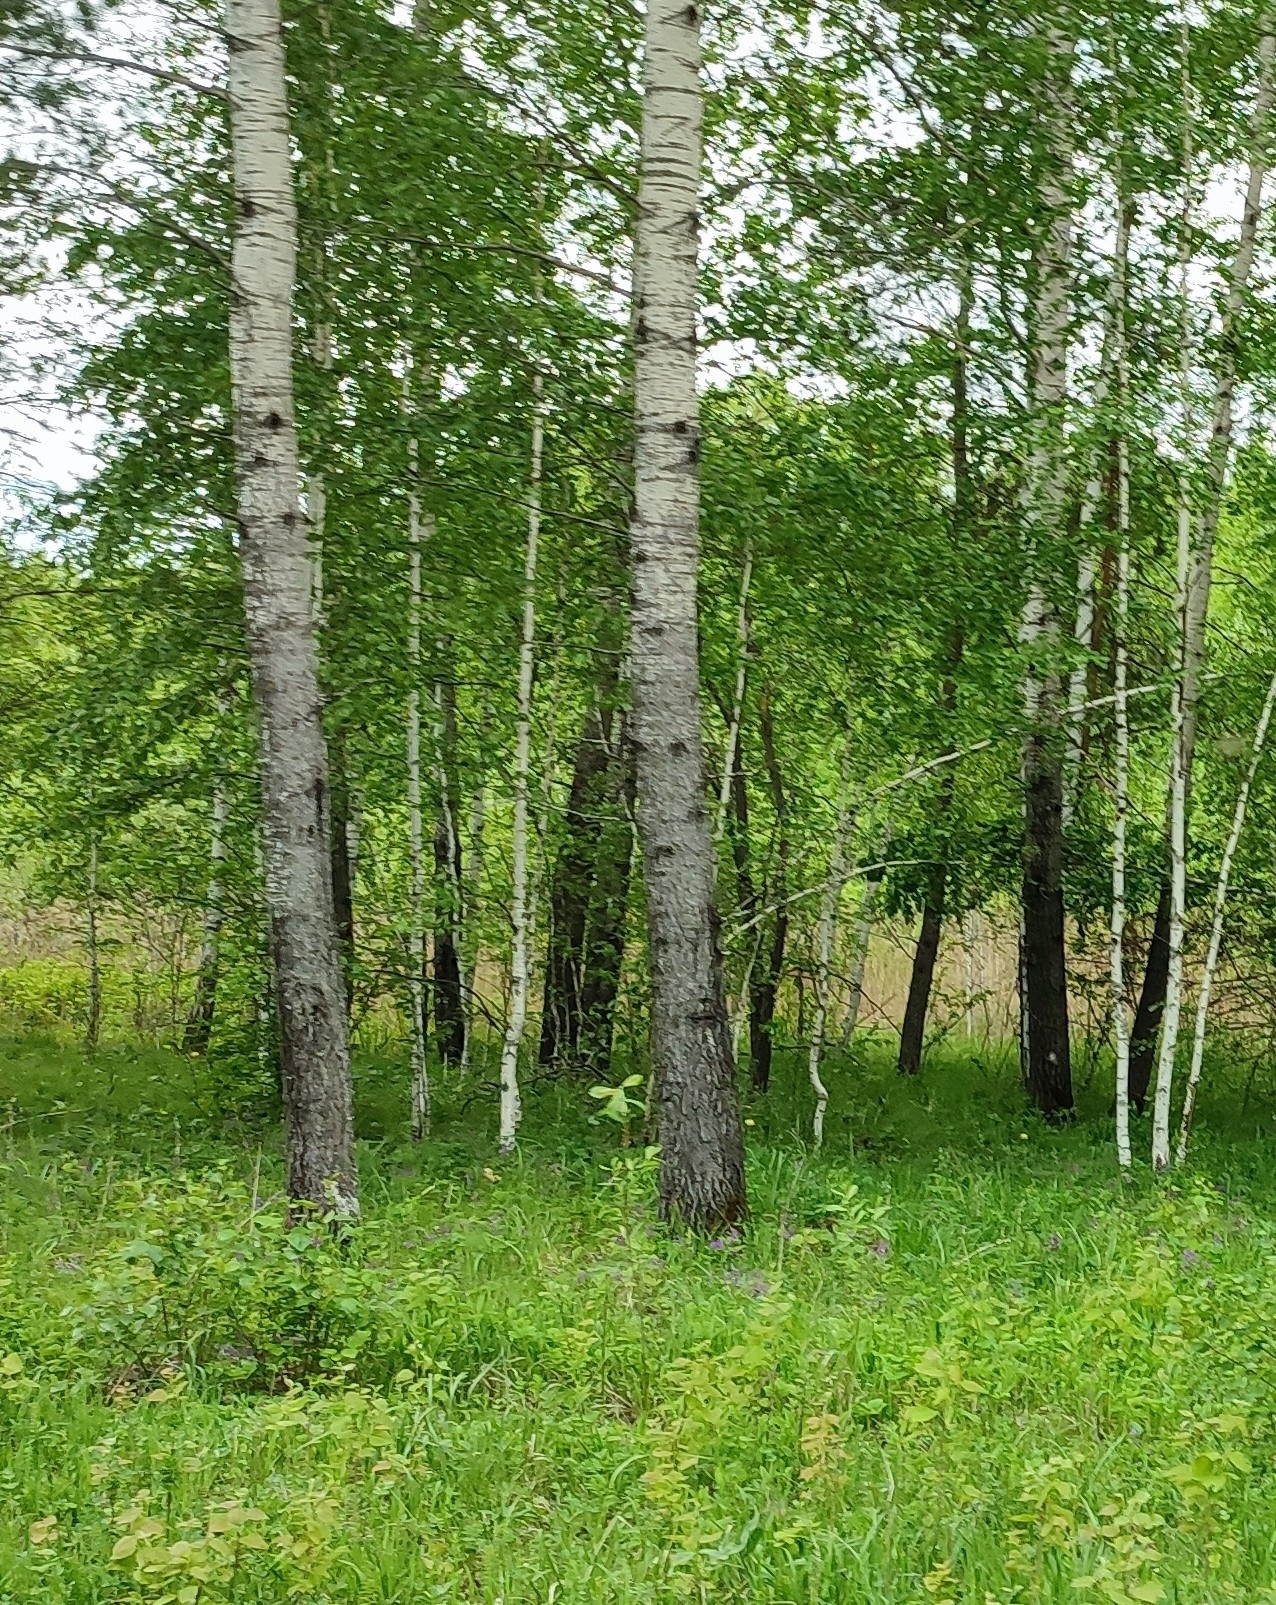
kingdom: Plantae
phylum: Tracheophyta
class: Magnoliopsida
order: Malpighiales
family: Salicaceae
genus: Populus
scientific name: Populus tremula
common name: European aspen
